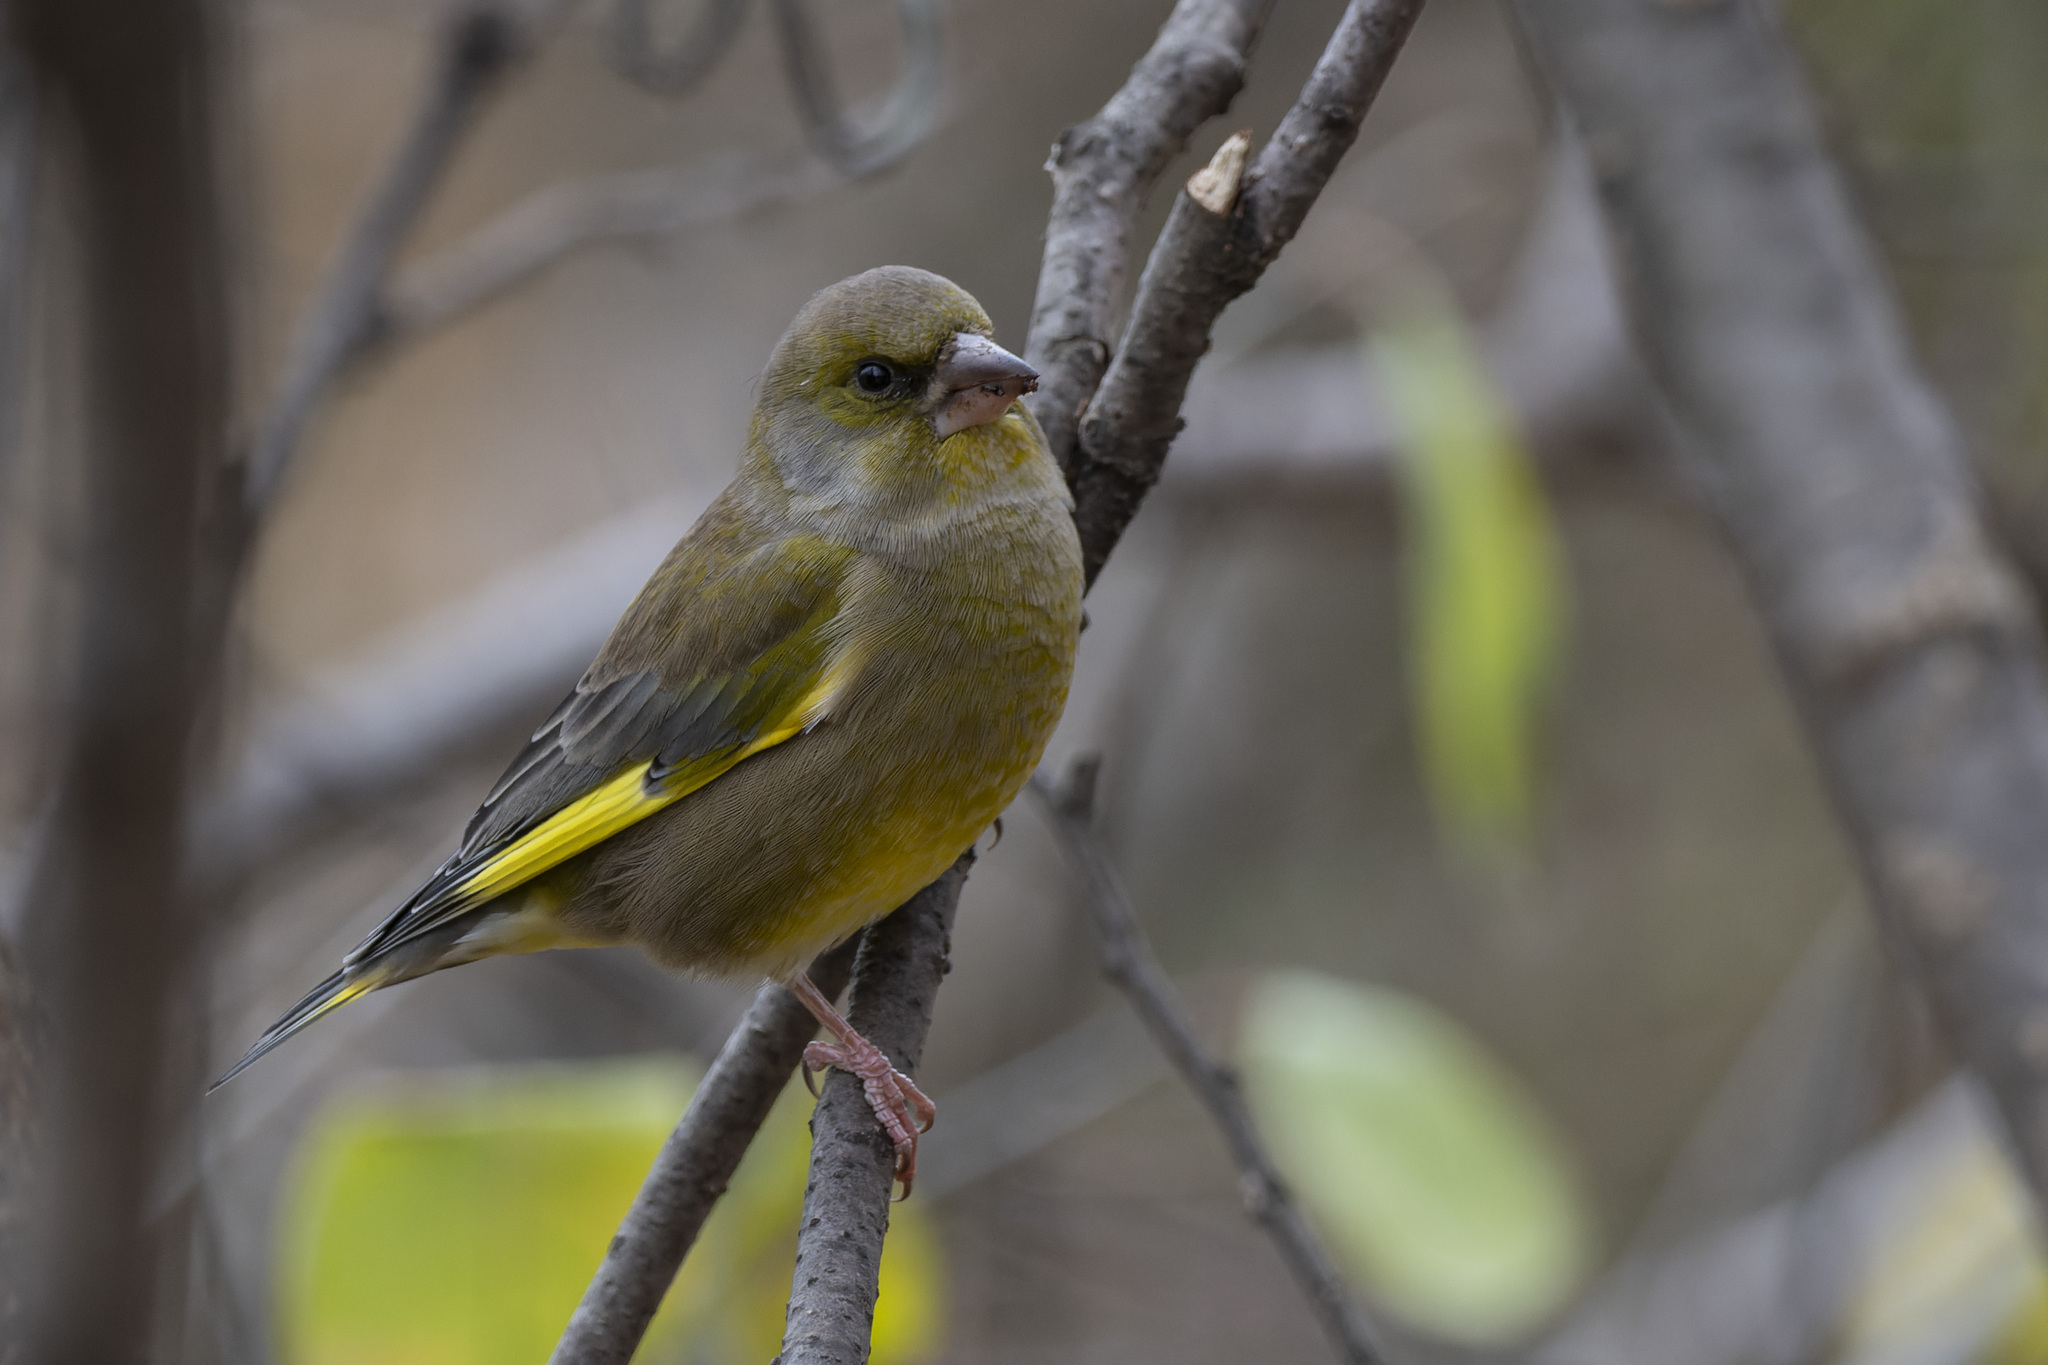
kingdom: Plantae
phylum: Tracheophyta
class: Liliopsida
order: Poales
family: Poaceae
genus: Chloris
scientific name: Chloris chloris
